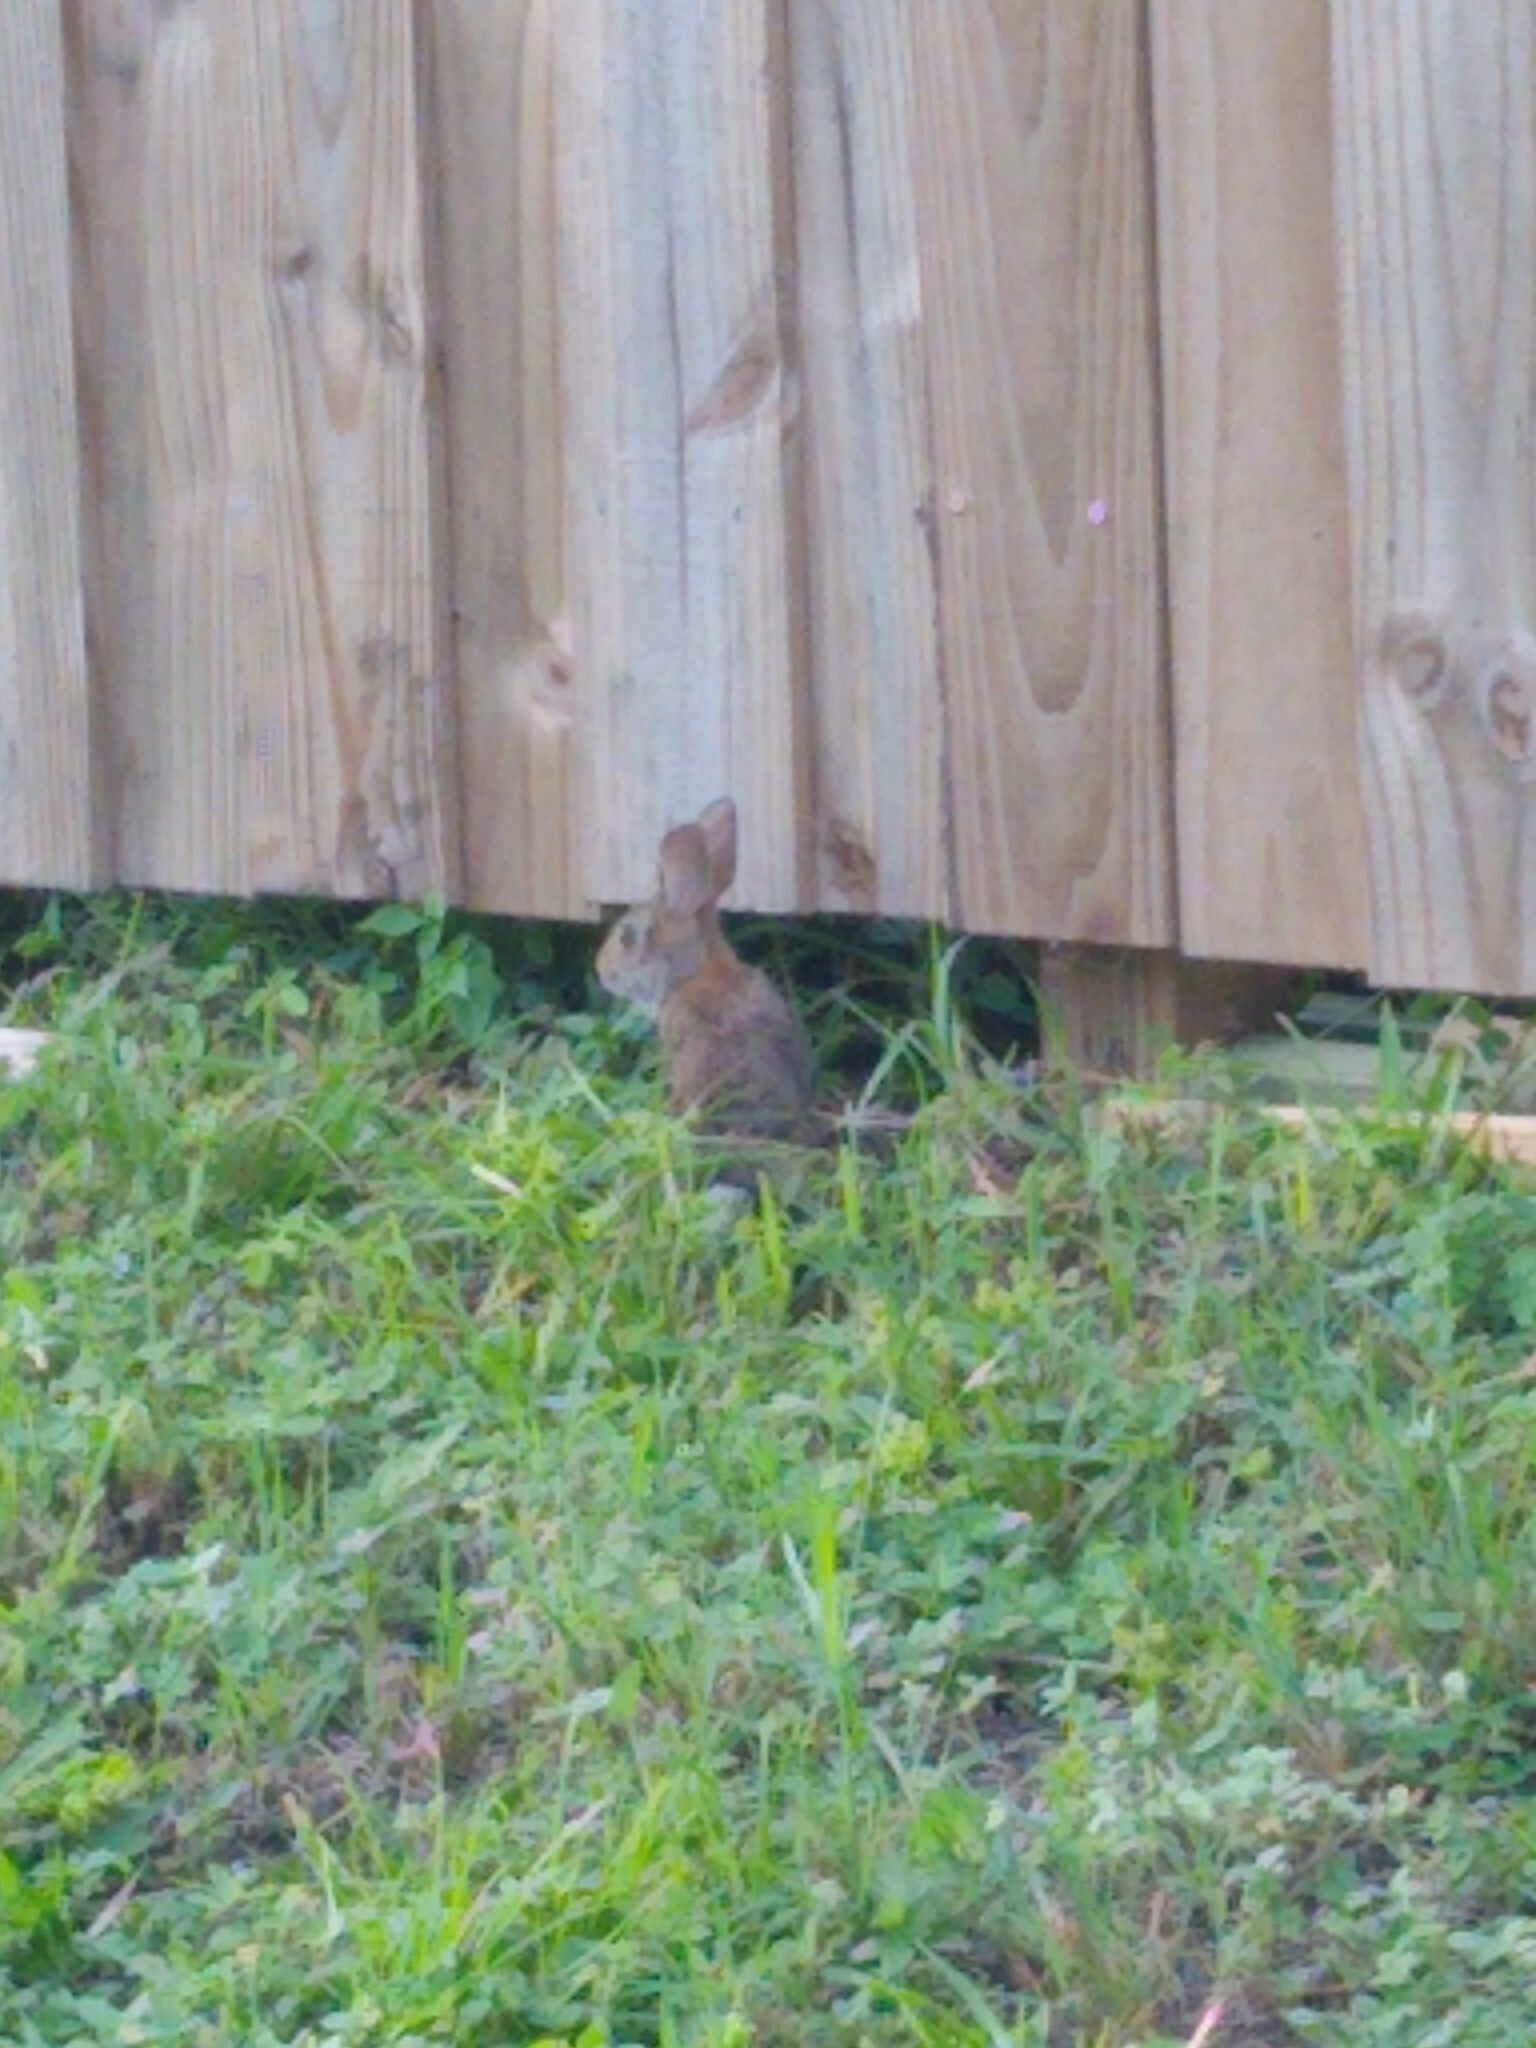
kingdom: Animalia
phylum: Chordata
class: Mammalia
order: Lagomorpha
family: Leporidae
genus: Sylvilagus
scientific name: Sylvilagus floridanus
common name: Eastern cottontail
